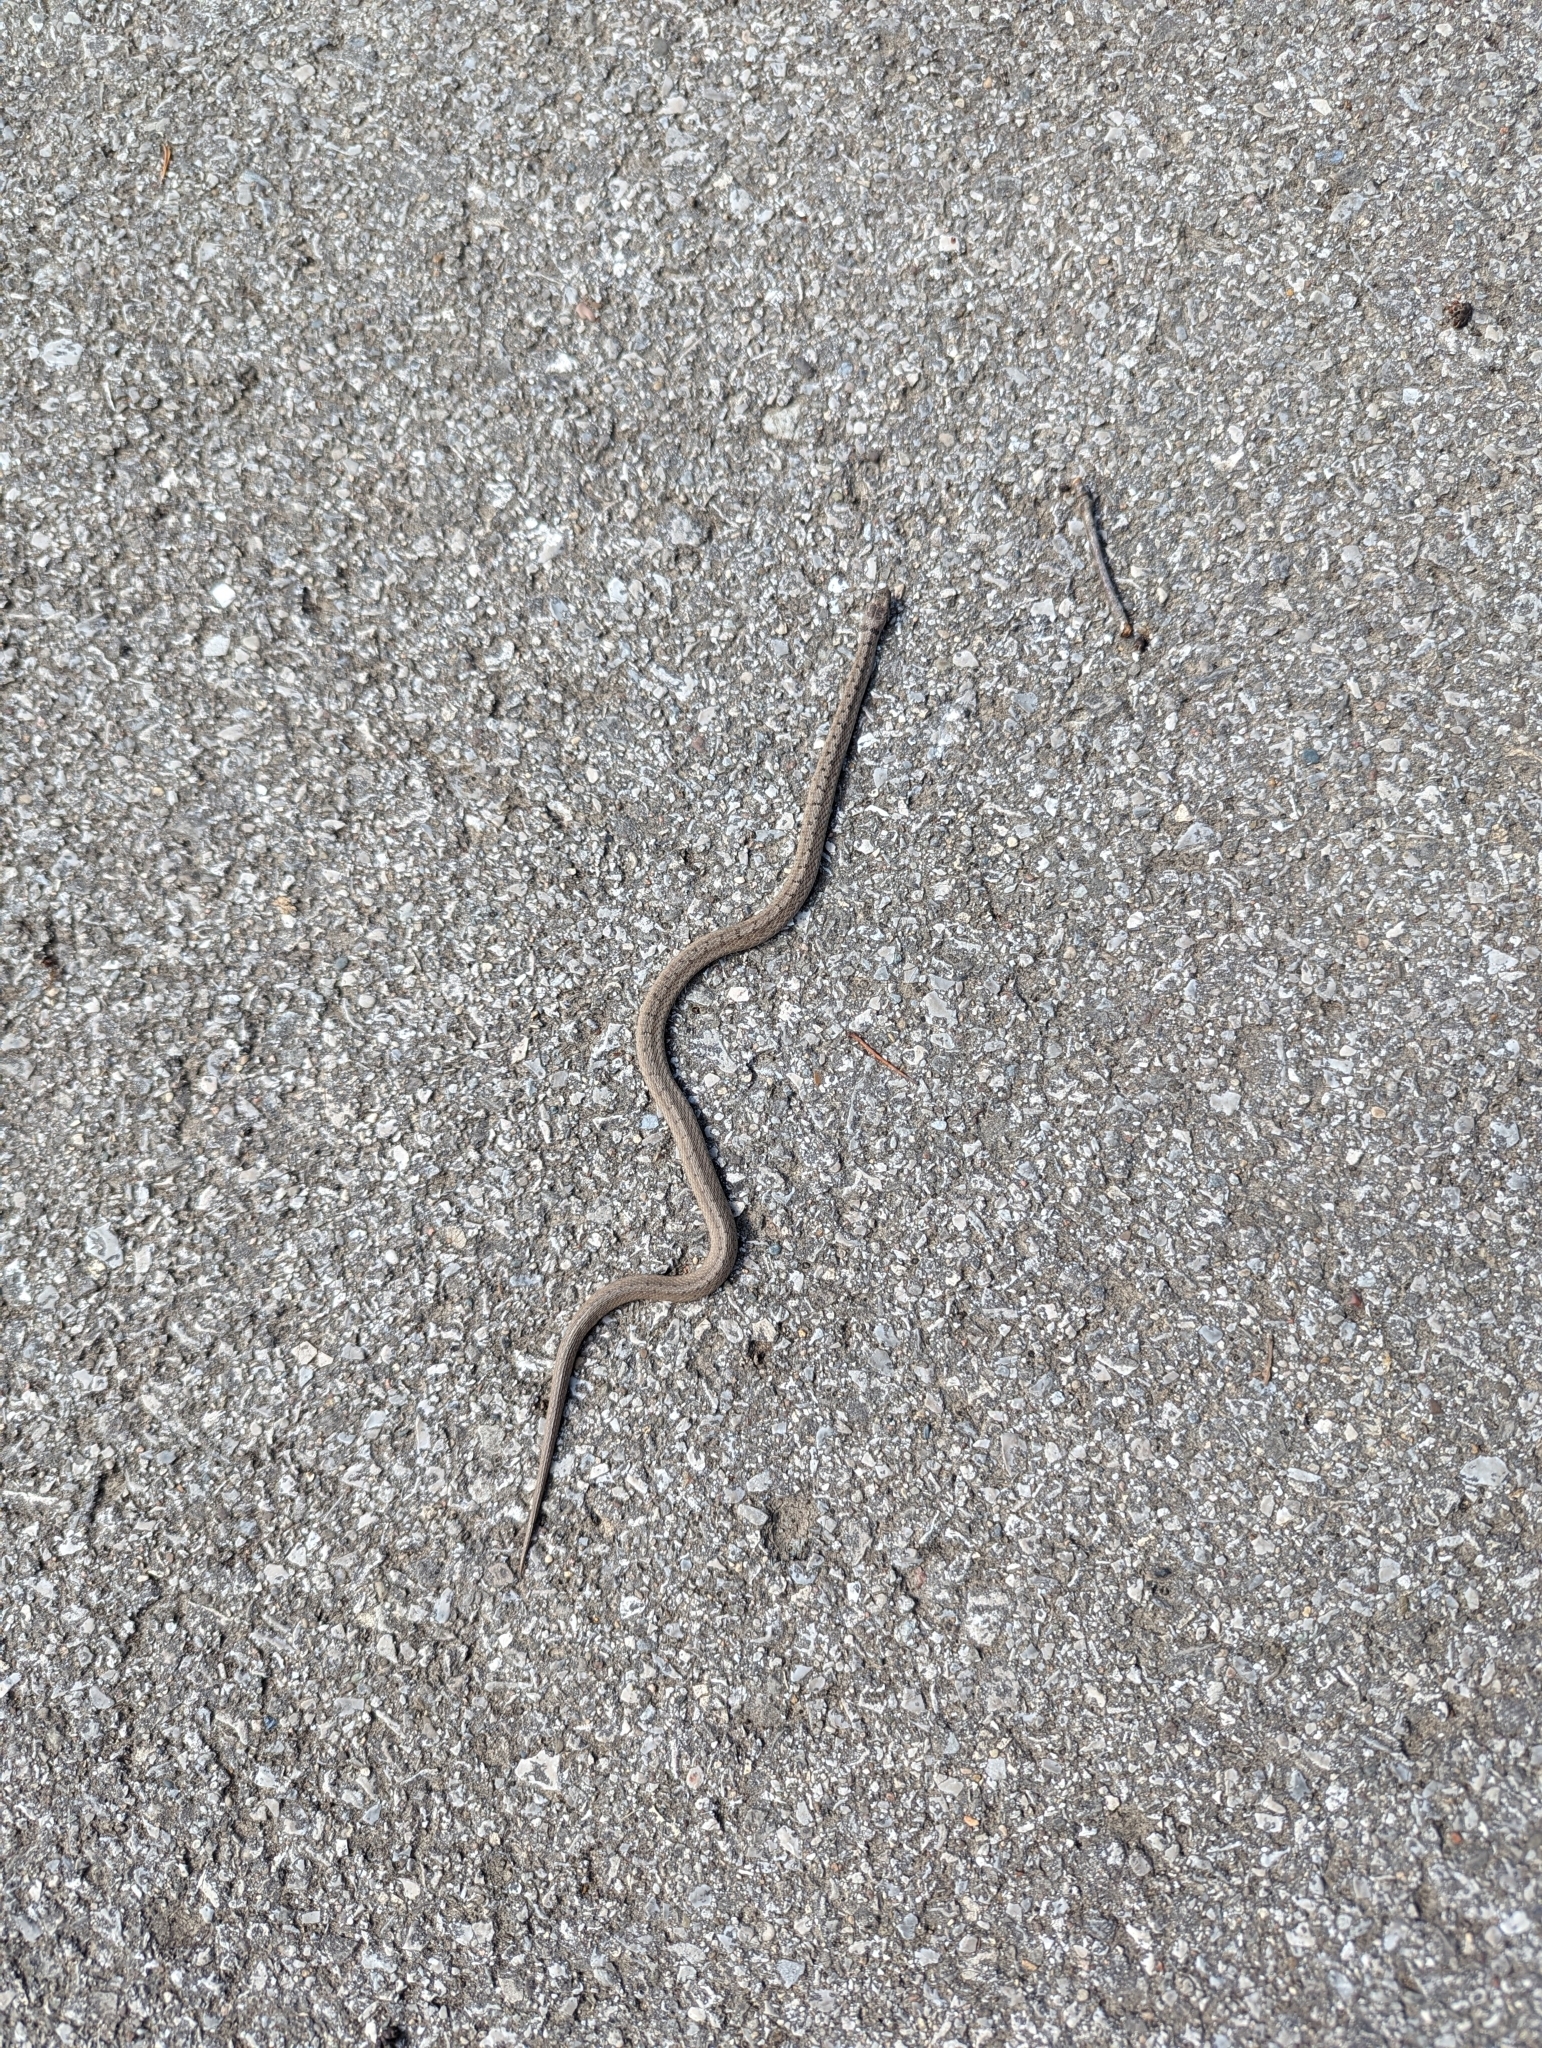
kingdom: Animalia
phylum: Chordata
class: Squamata
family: Colubridae
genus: Storeria
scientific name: Storeria dekayi
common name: (dekay’s) brown snake
